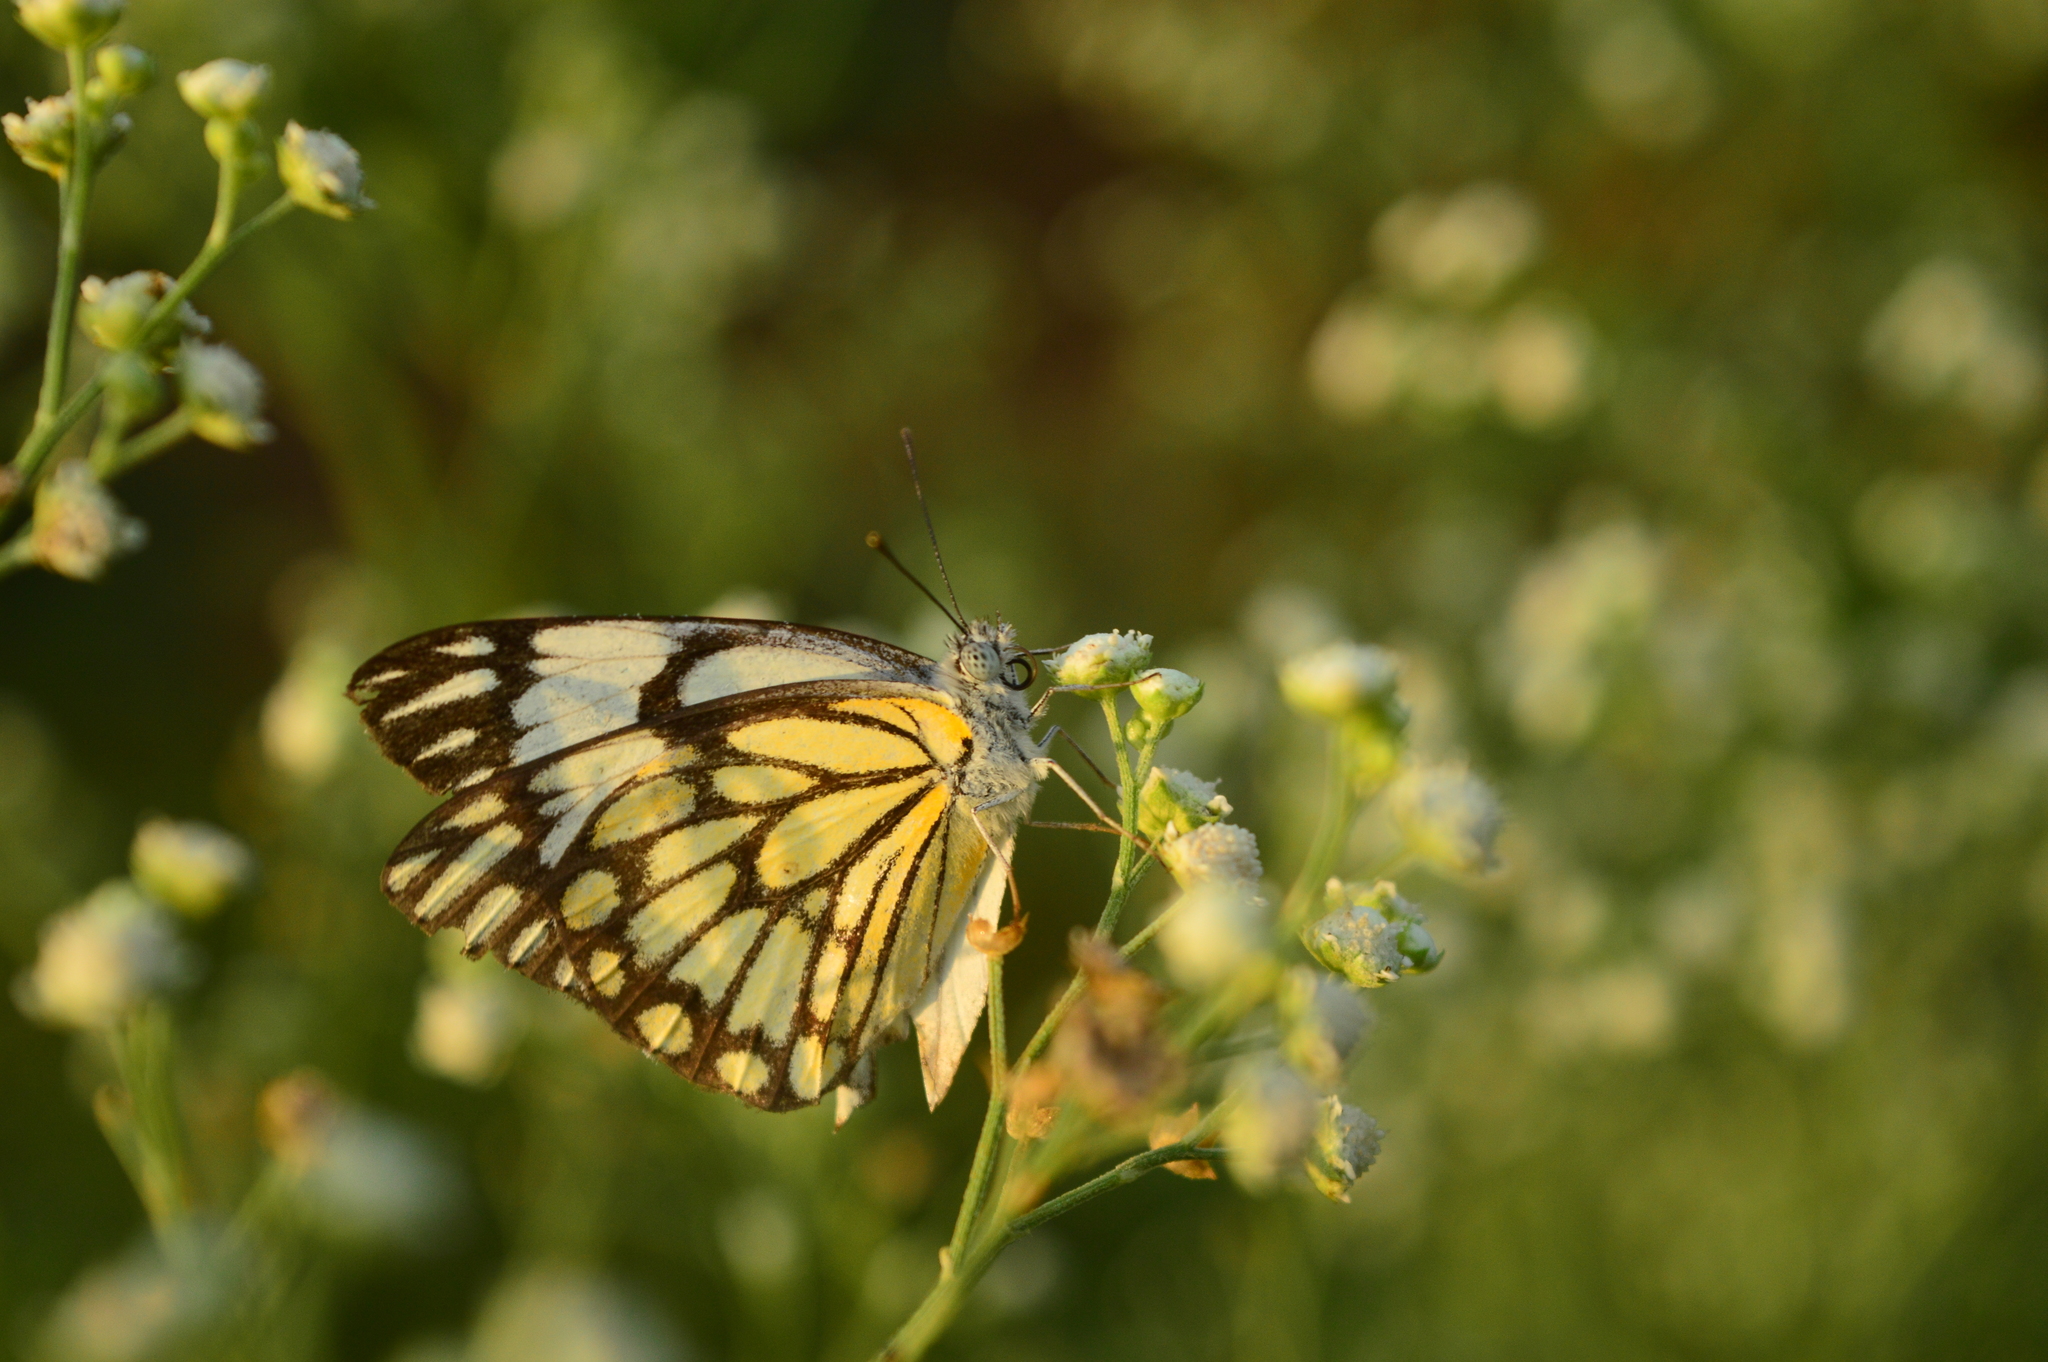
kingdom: Animalia
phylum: Arthropoda
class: Insecta
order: Lepidoptera
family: Pieridae
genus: Belenois
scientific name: Belenois aurota
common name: Brown-veined white
